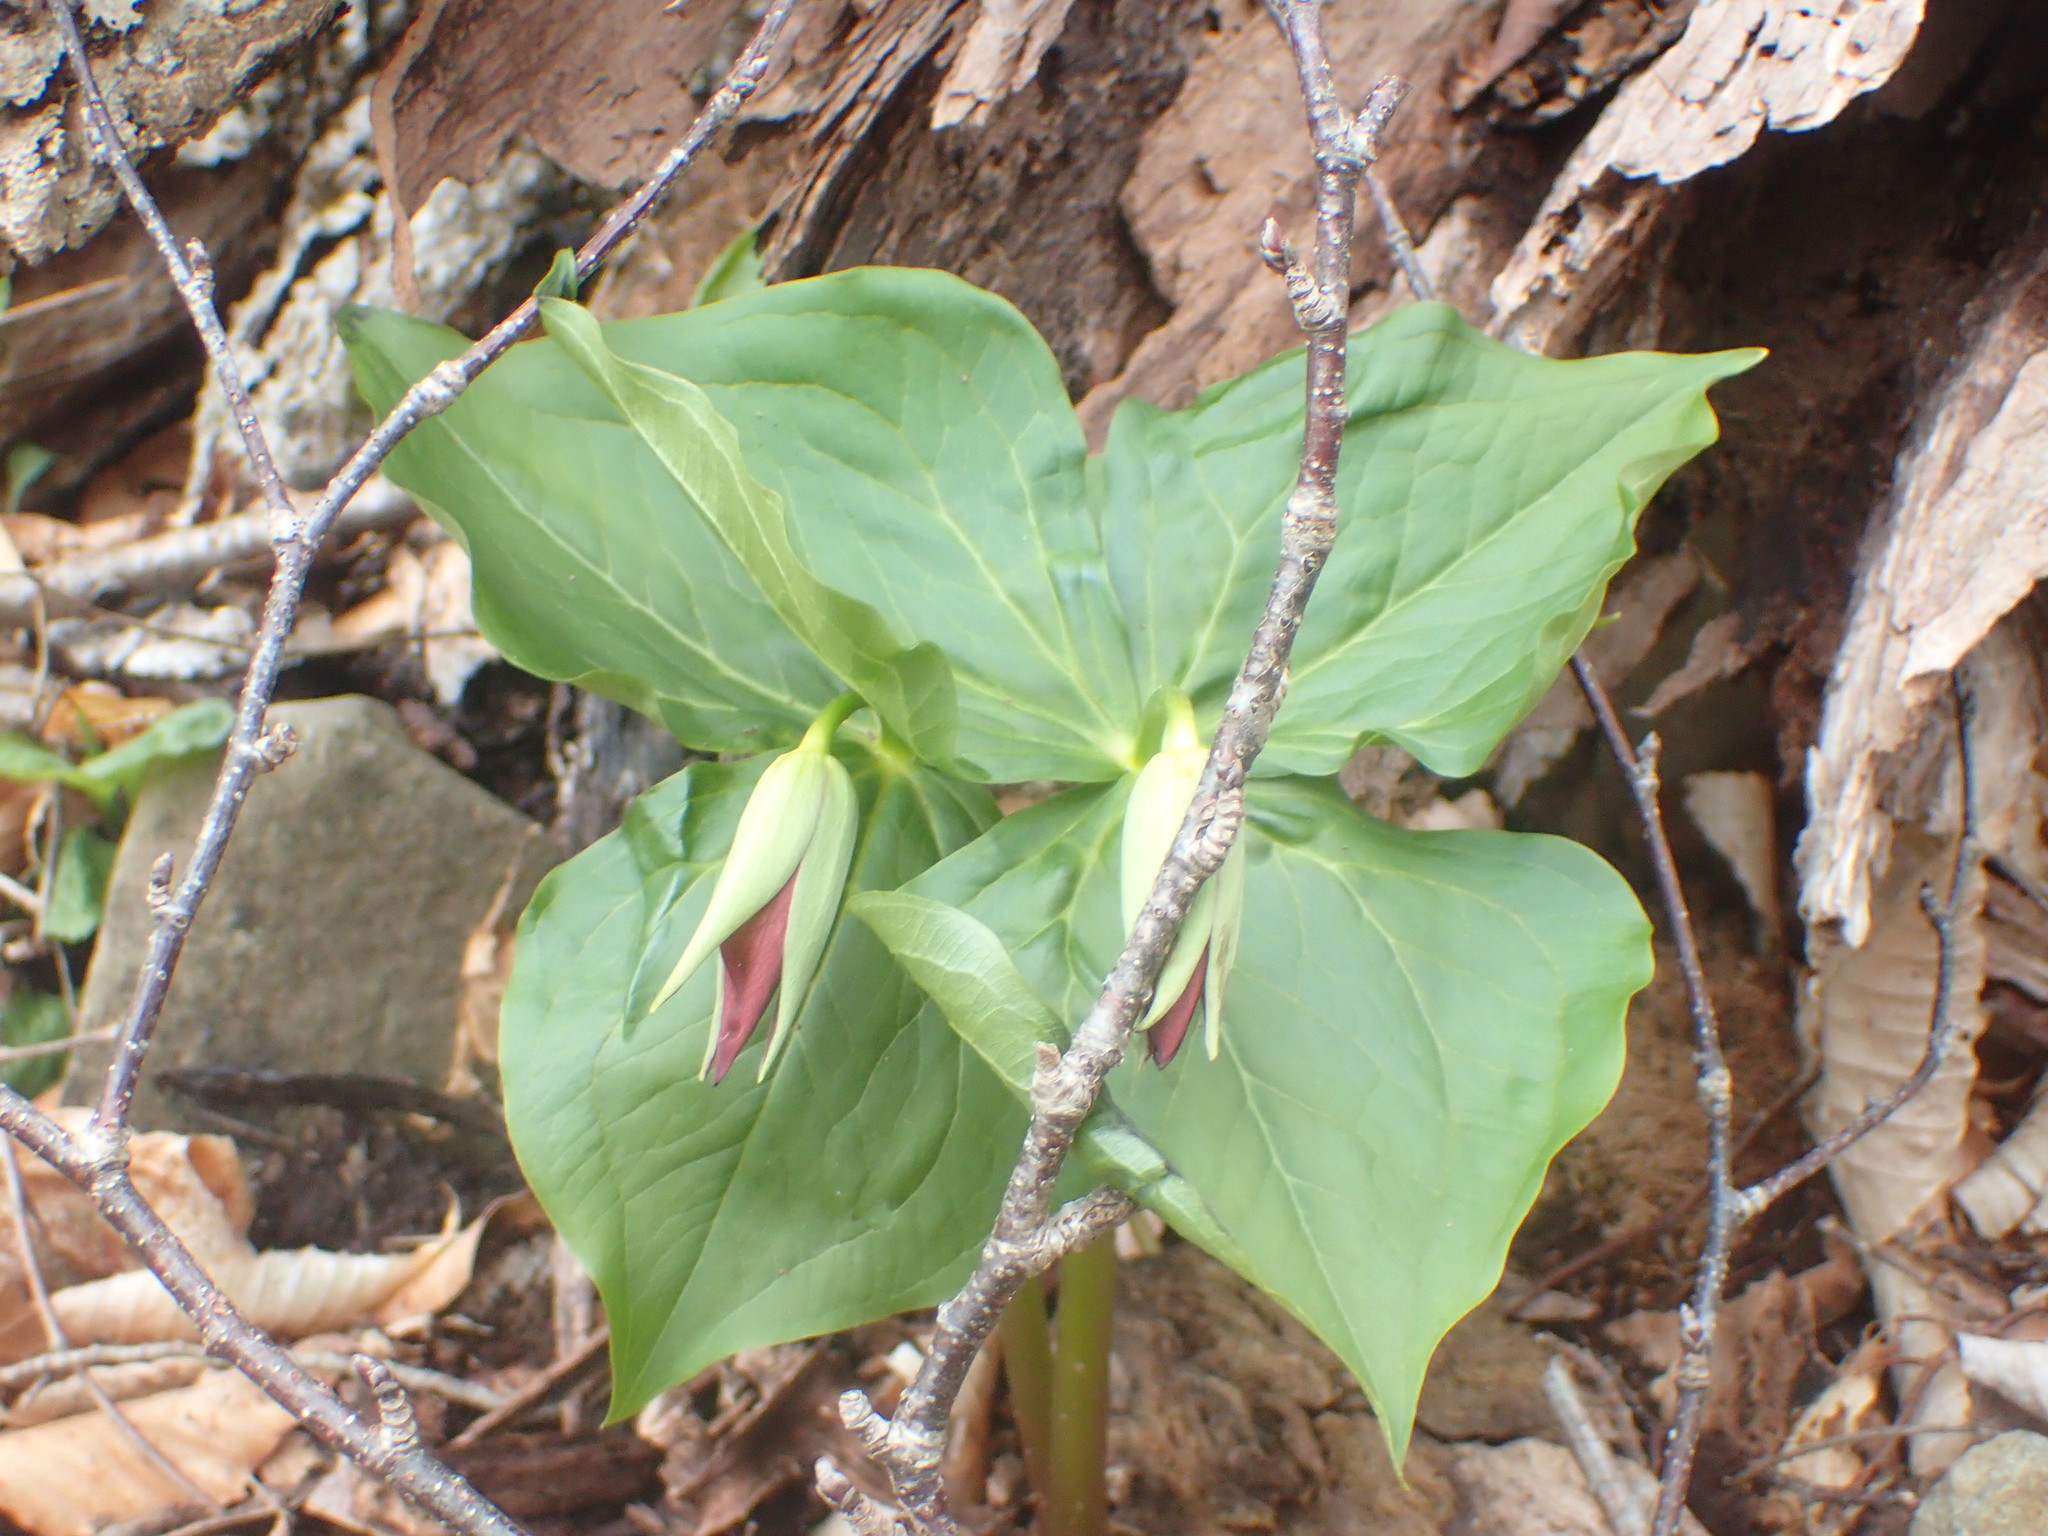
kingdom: Plantae
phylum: Tracheophyta
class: Liliopsida
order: Liliales
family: Melanthiaceae
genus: Trillium
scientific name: Trillium erectum
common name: Purple trillium
